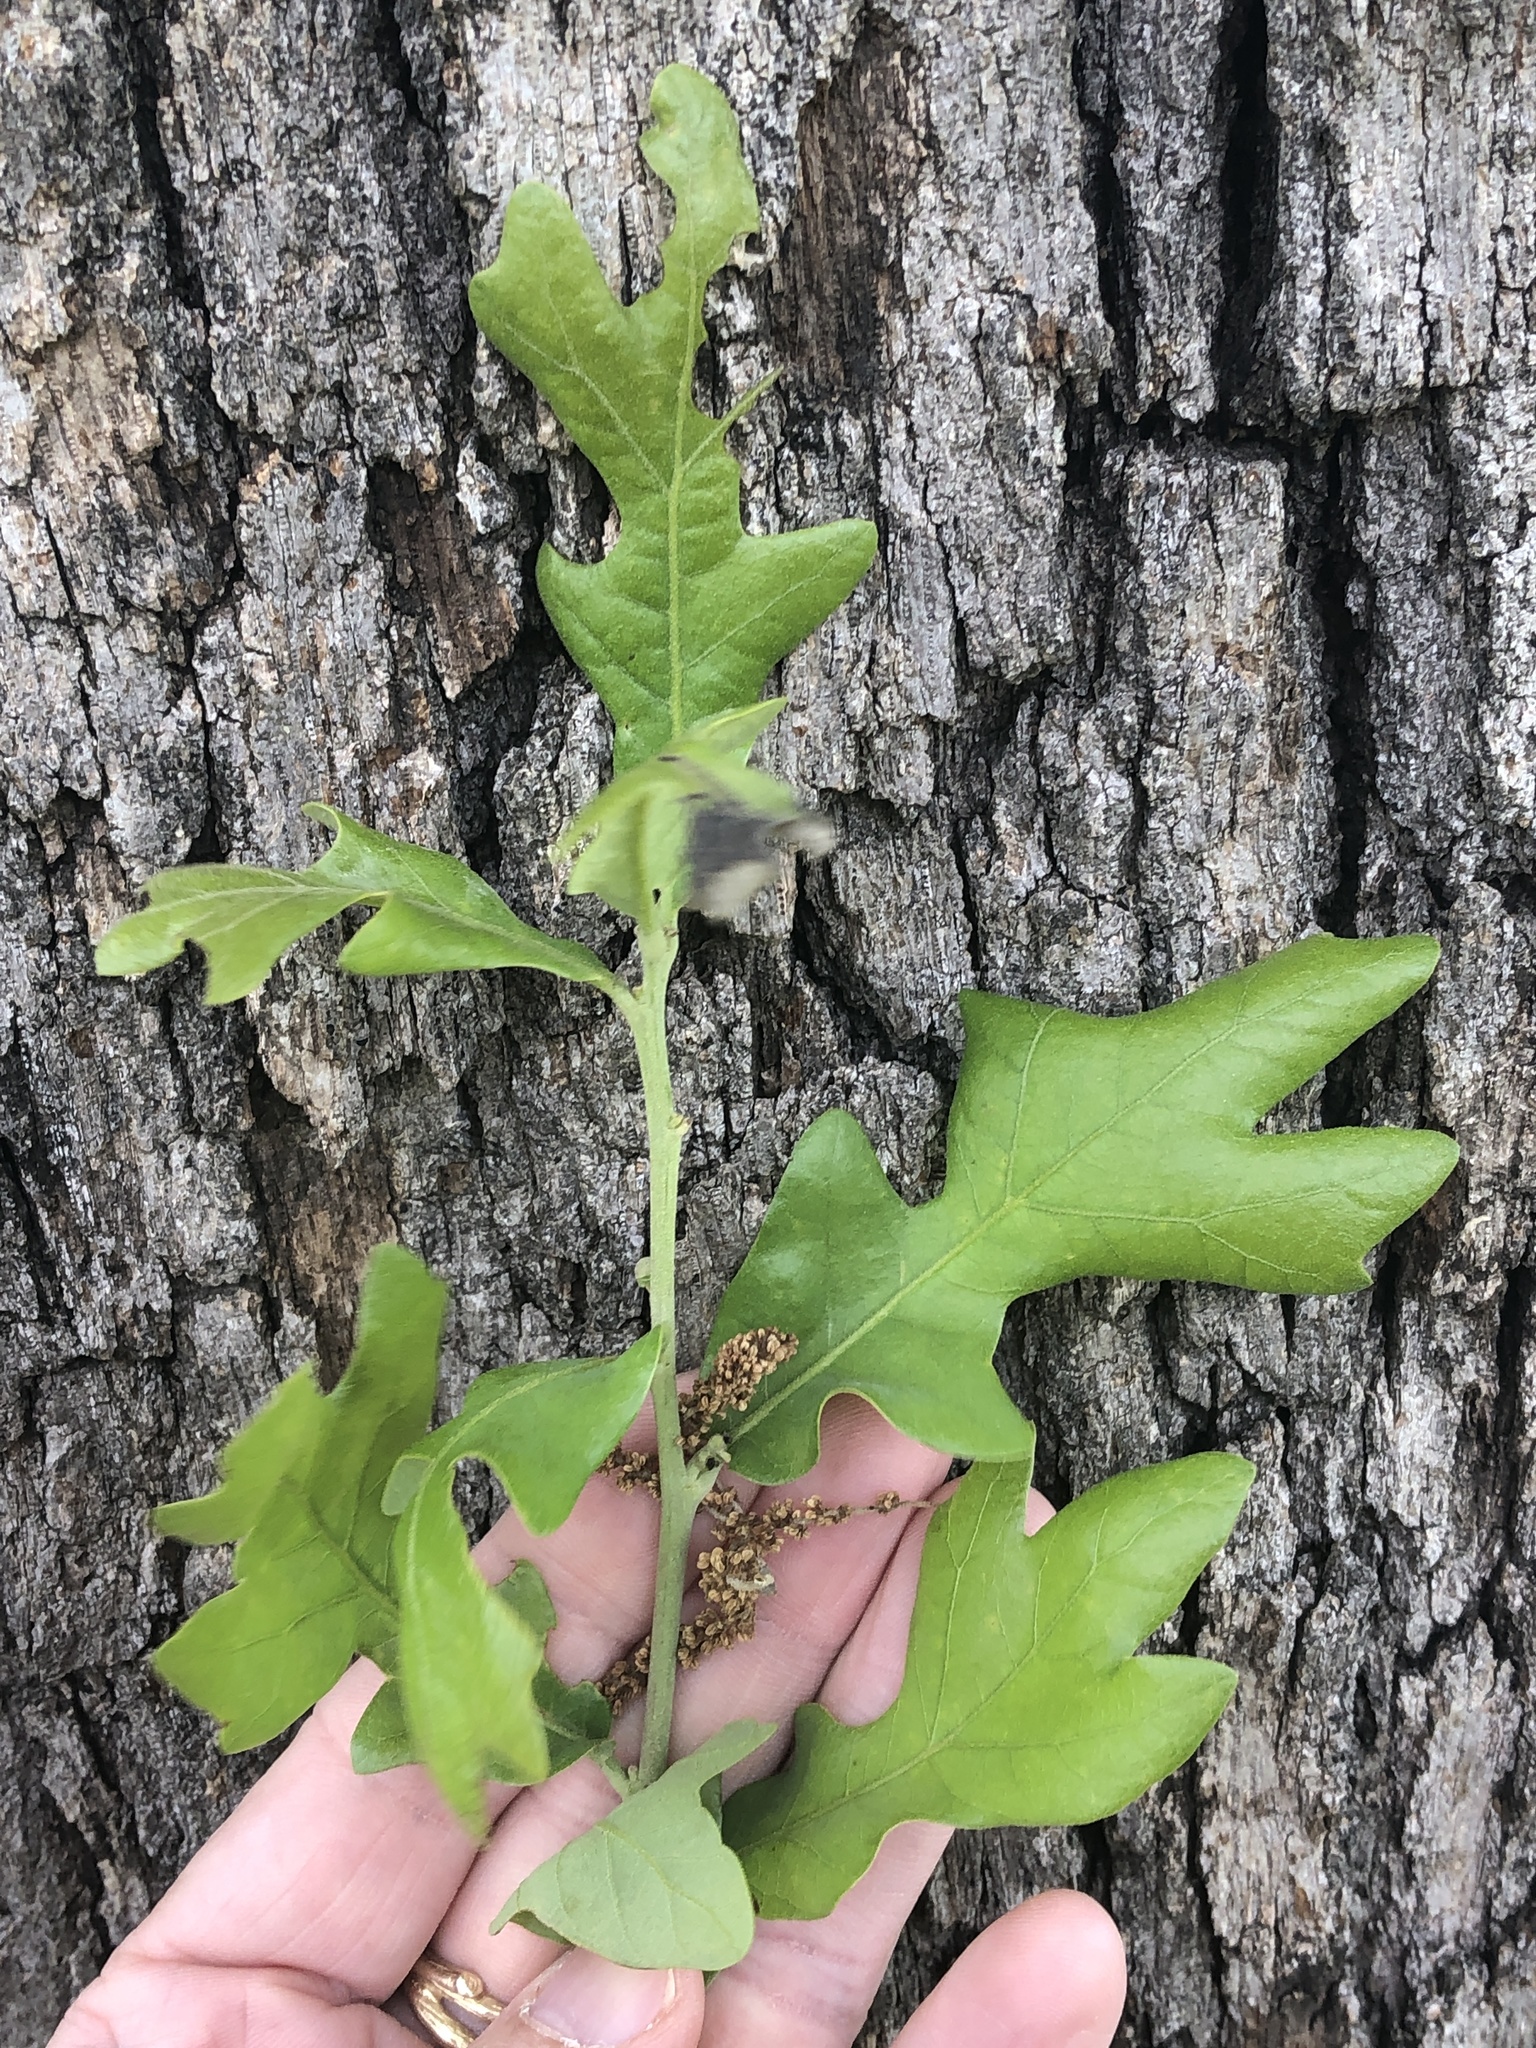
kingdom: Plantae
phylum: Tracheophyta
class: Magnoliopsida
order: Fagales
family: Fagaceae
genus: Quercus
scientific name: Quercus stellata
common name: Post oak
